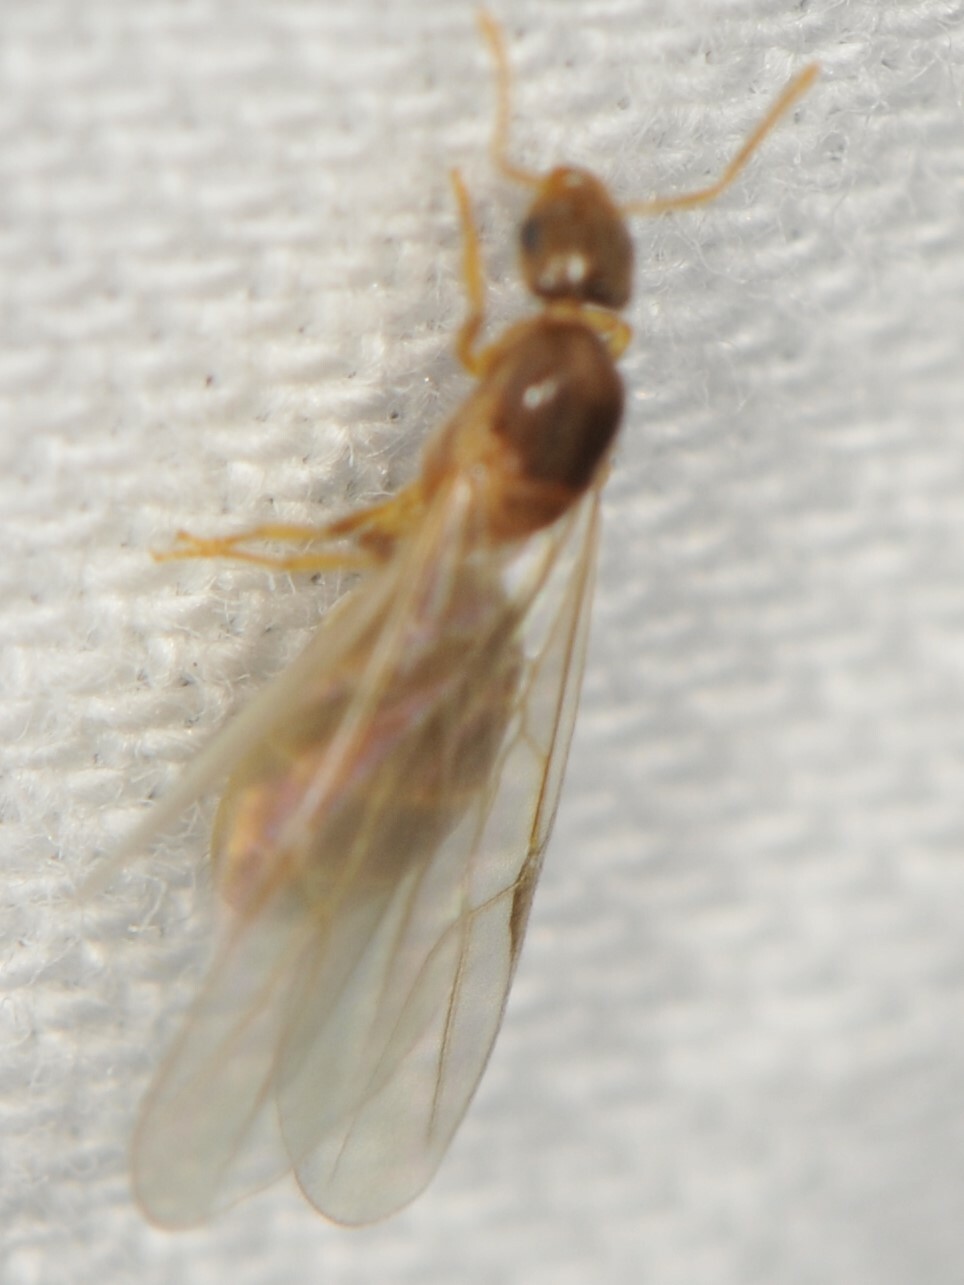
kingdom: Animalia
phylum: Arthropoda
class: Insecta
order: Hymenoptera
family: Formicidae
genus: Brachymyrmex
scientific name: Brachymyrmex depilis
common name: Hairless rover ant
